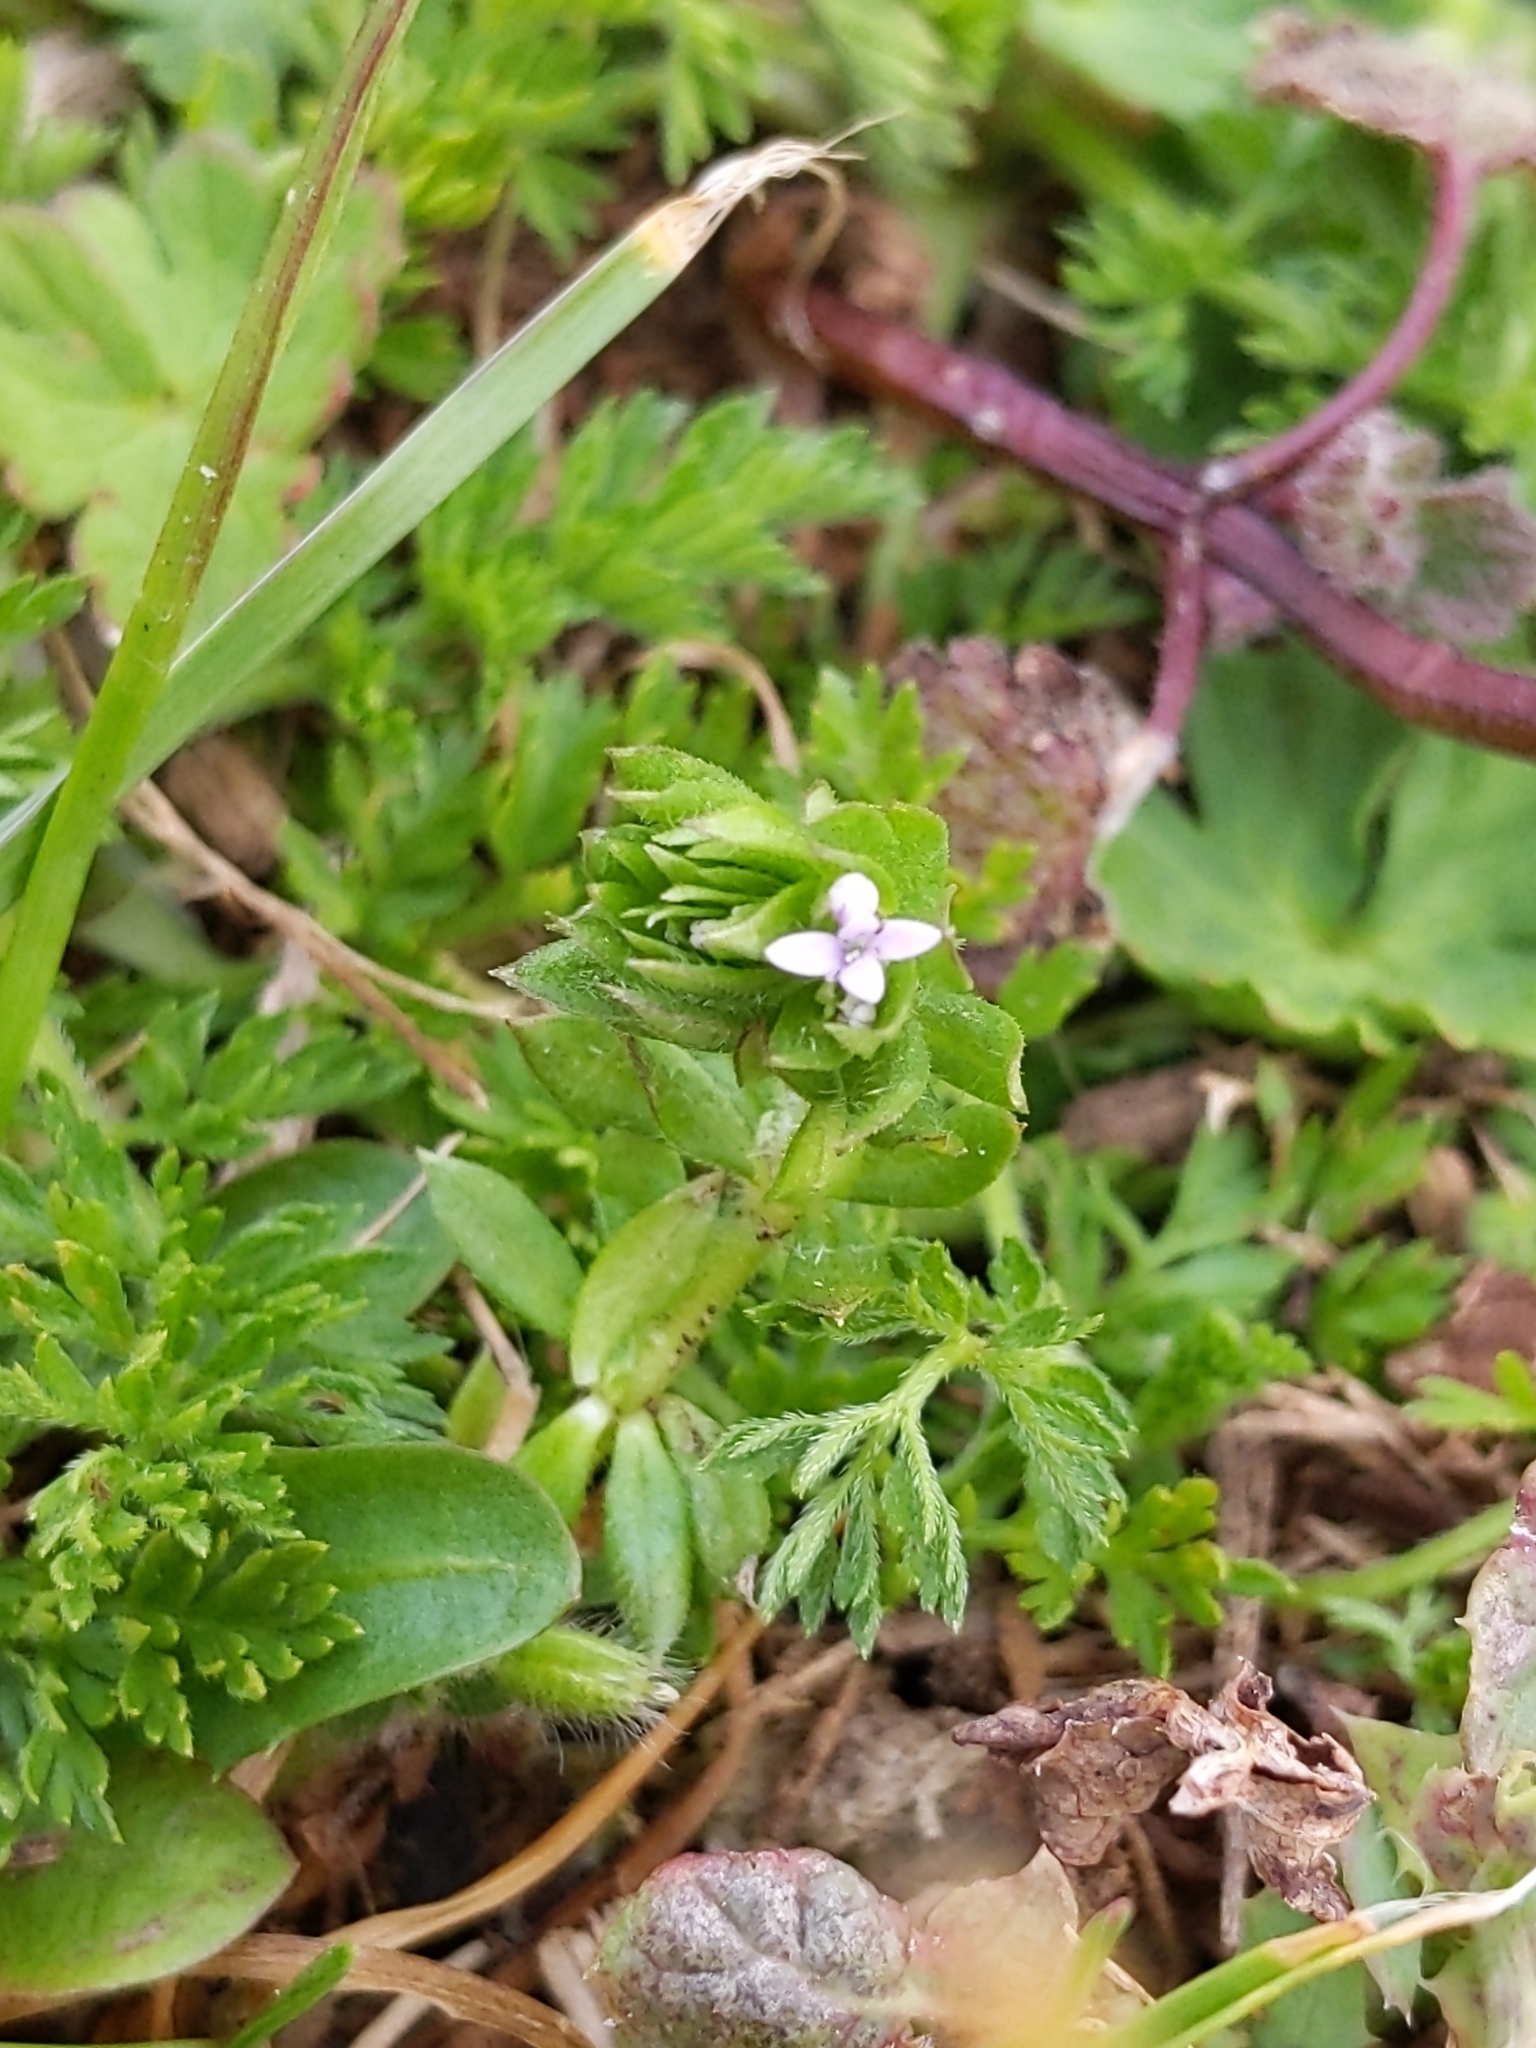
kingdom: Plantae
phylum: Tracheophyta
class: Magnoliopsida
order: Gentianales
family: Rubiaceae
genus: Sherardia
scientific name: Sherardia arvensis
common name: Field madder
